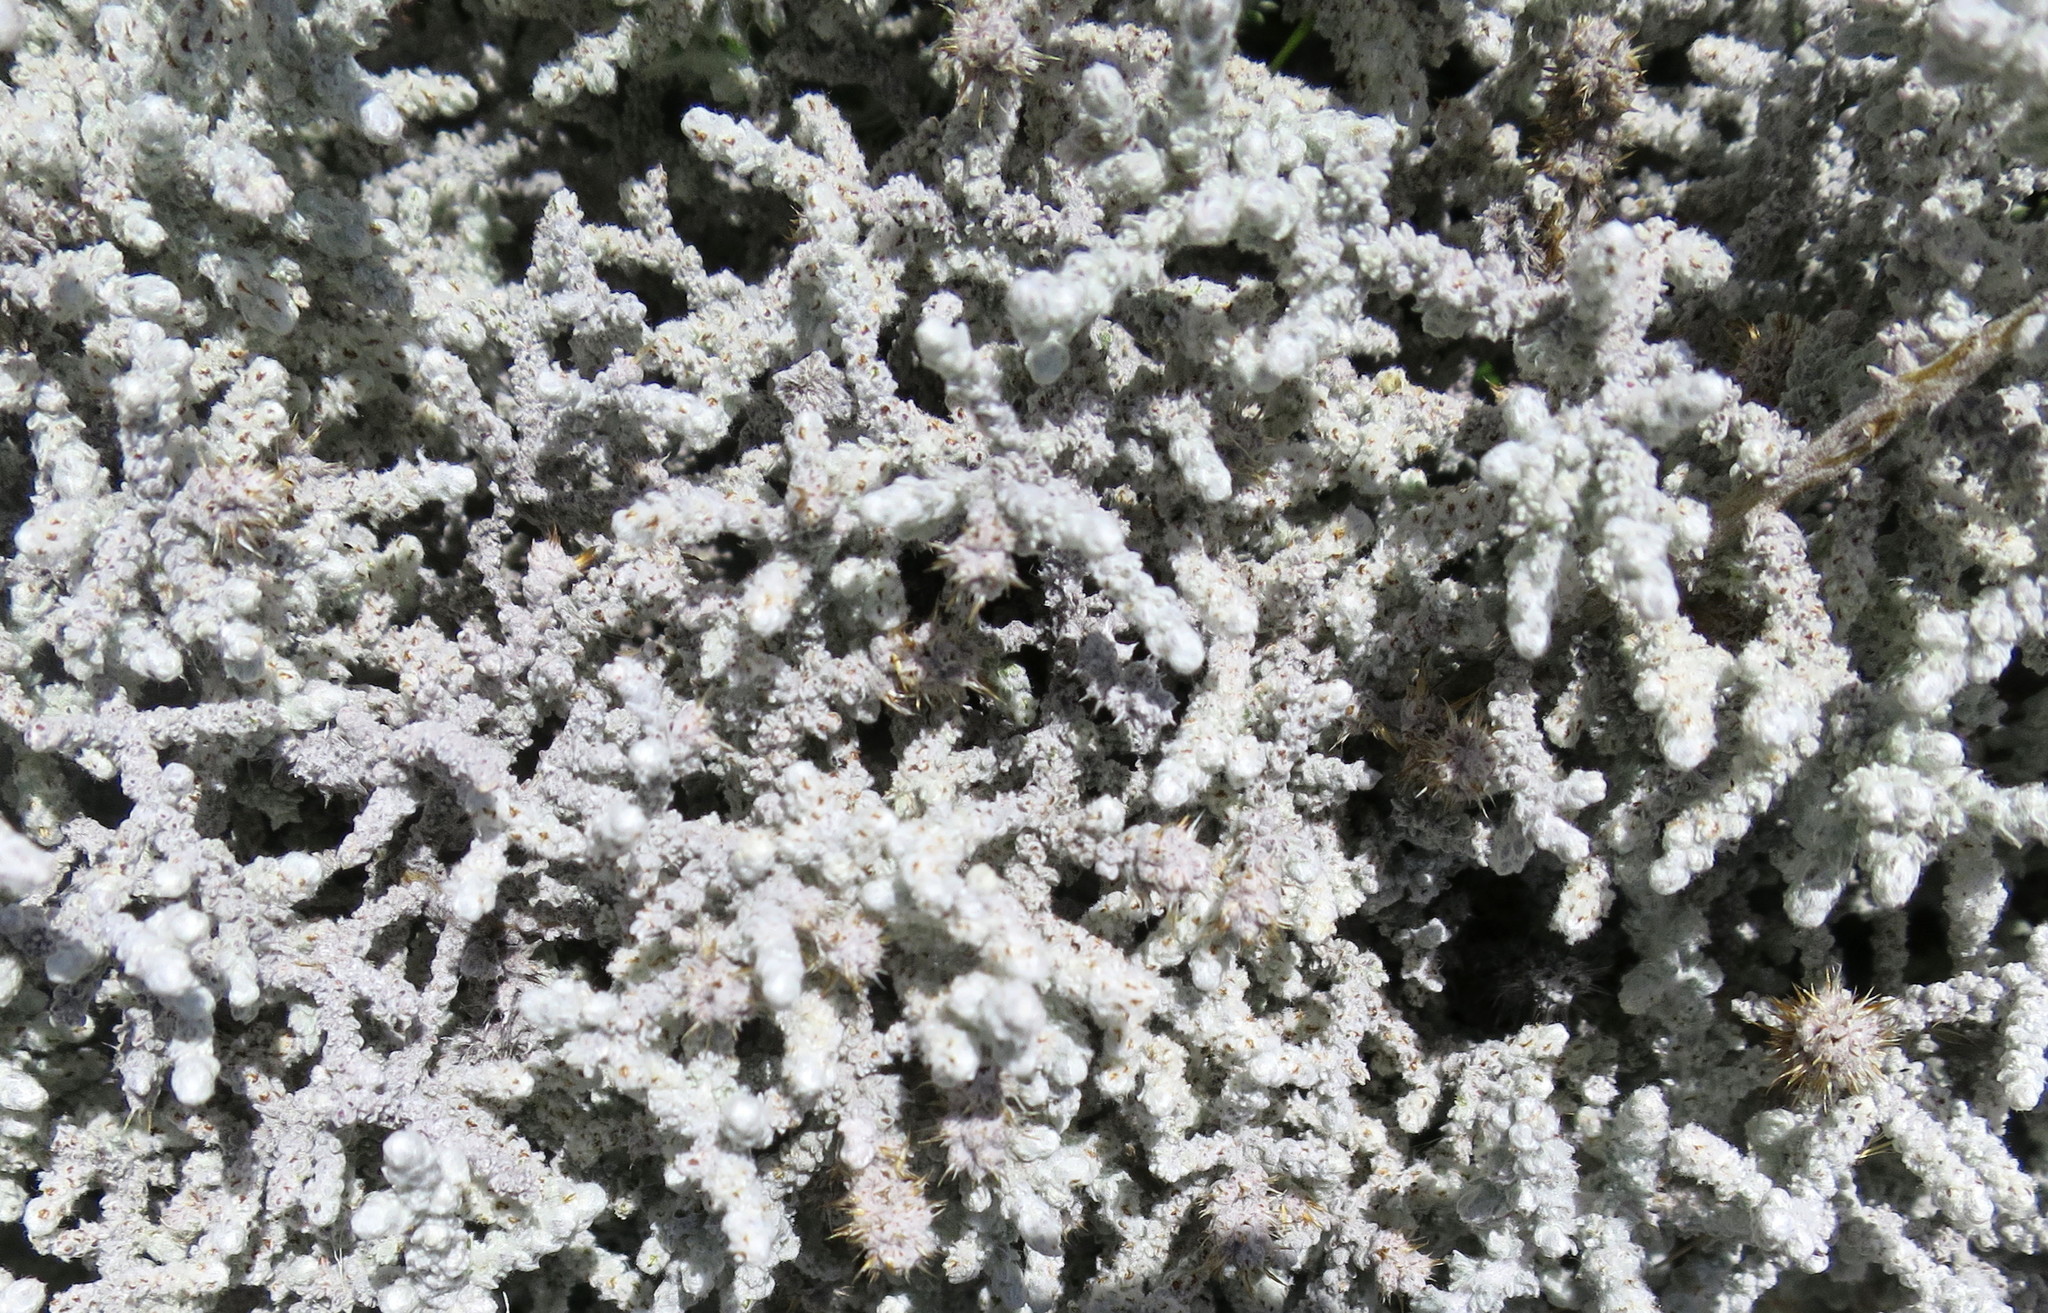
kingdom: Plantae
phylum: Tracheophyta
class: Magnoliopsida
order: Asterales
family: Asteraceae
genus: Seriphium
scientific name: Seriphium plumosum
